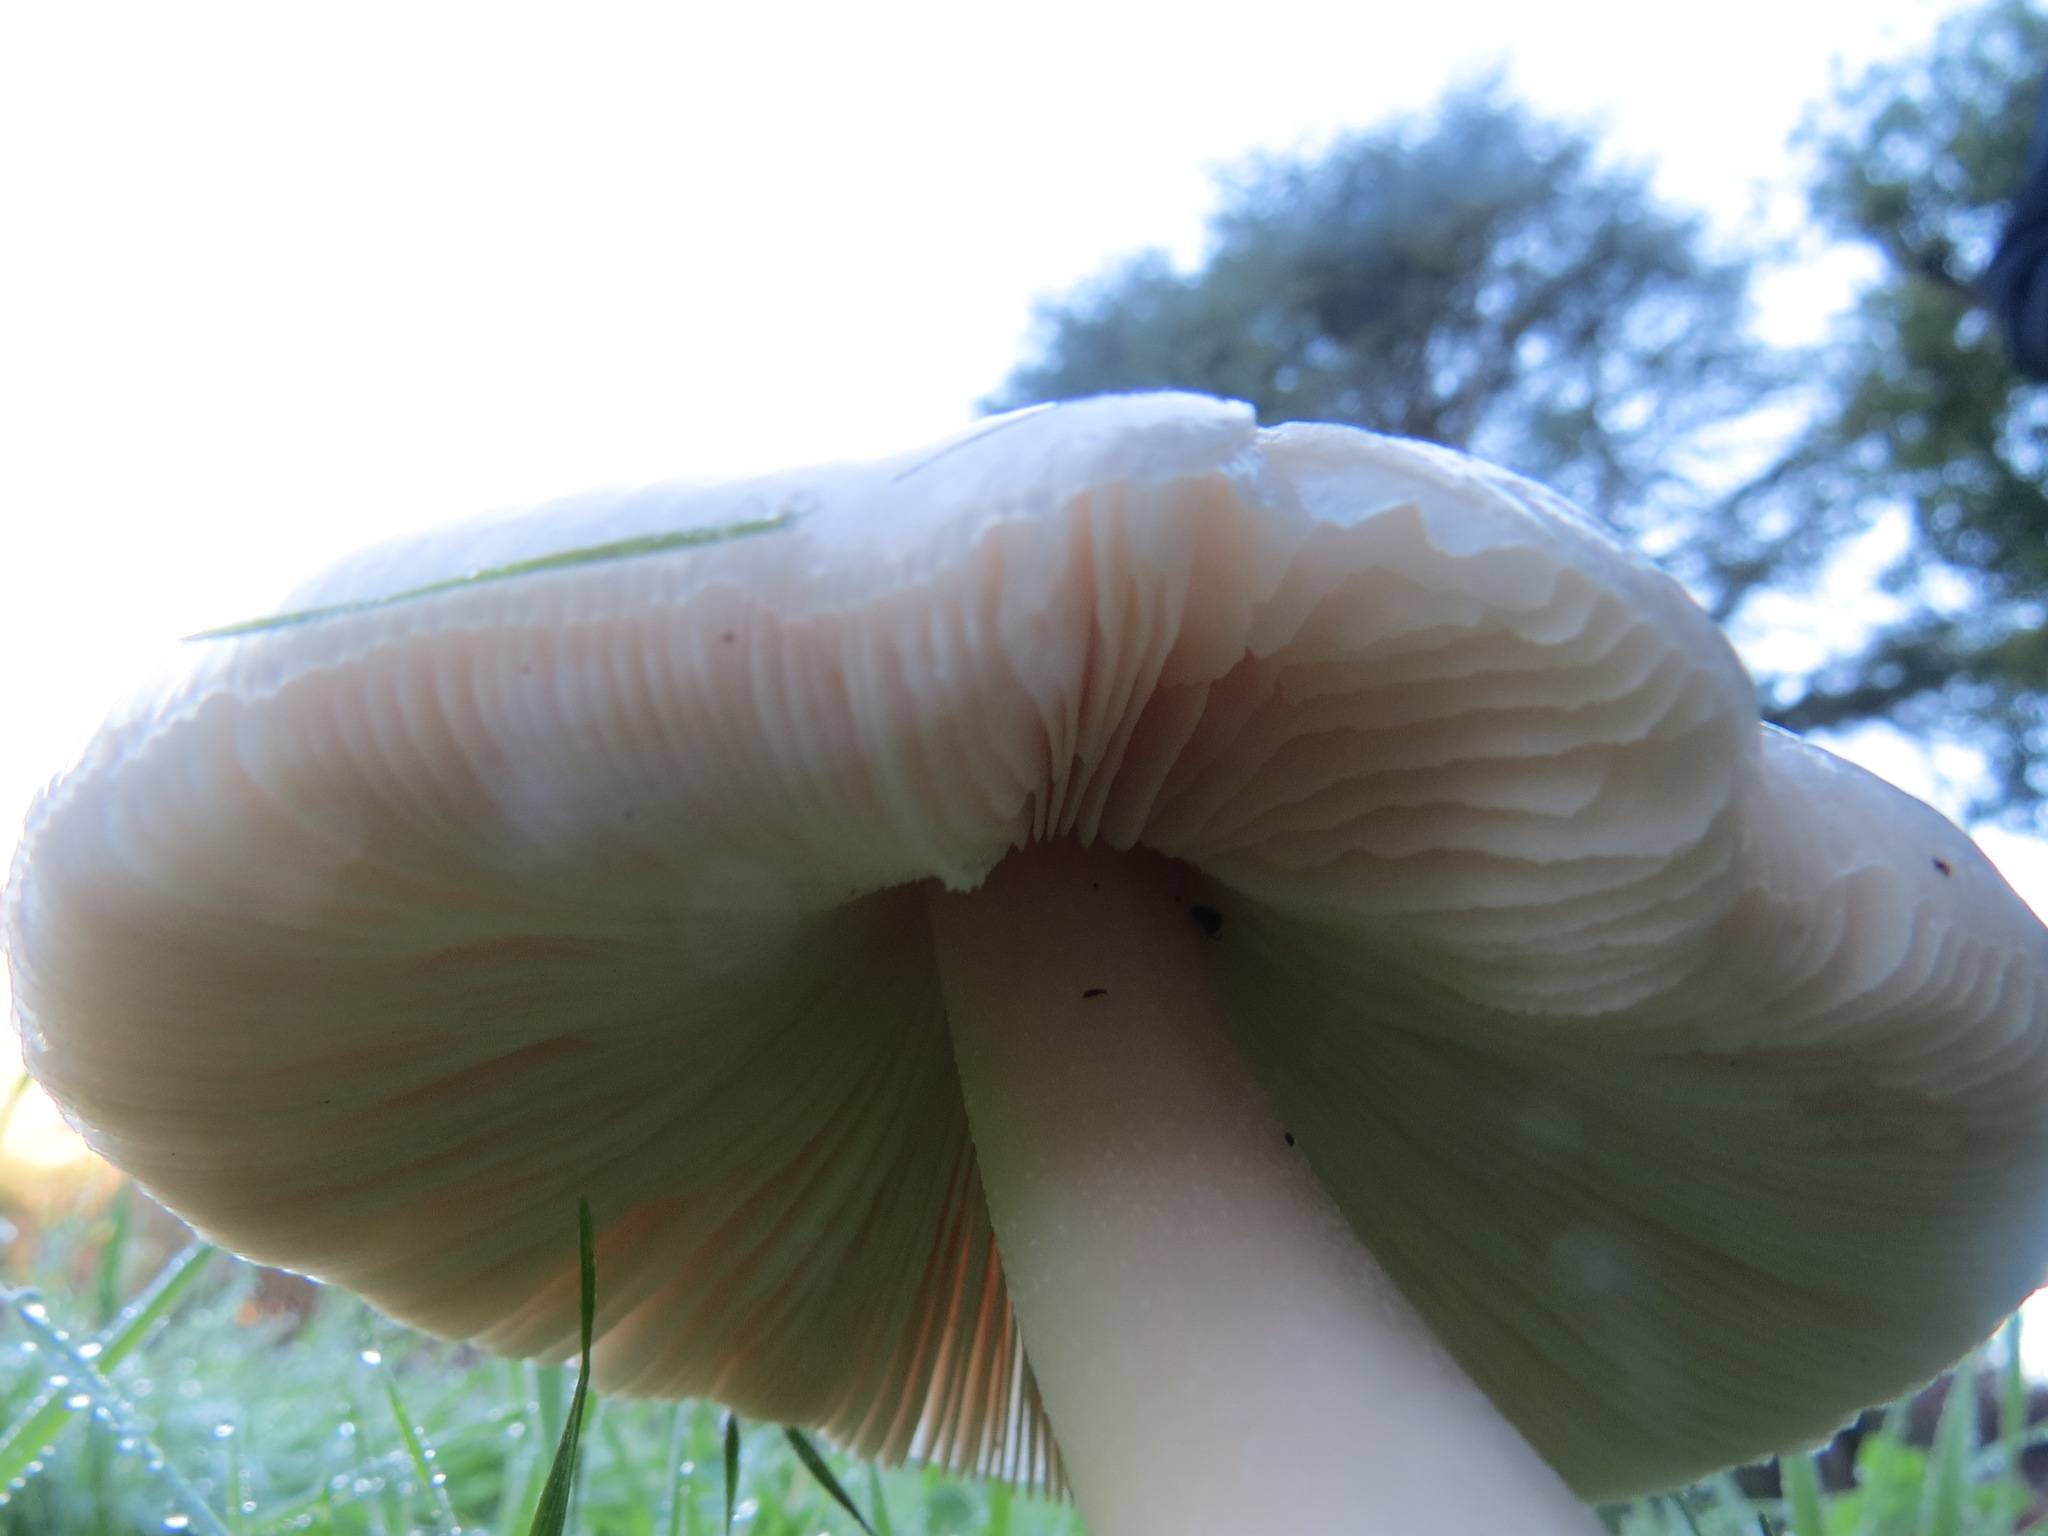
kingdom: Fungi
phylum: Basidiomycota
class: Agaricomycetes
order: Agaricales
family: Pluteaceae
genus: Volvopluteus
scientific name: Volvopluteus gloiocephalus
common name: Stubble rosegill
